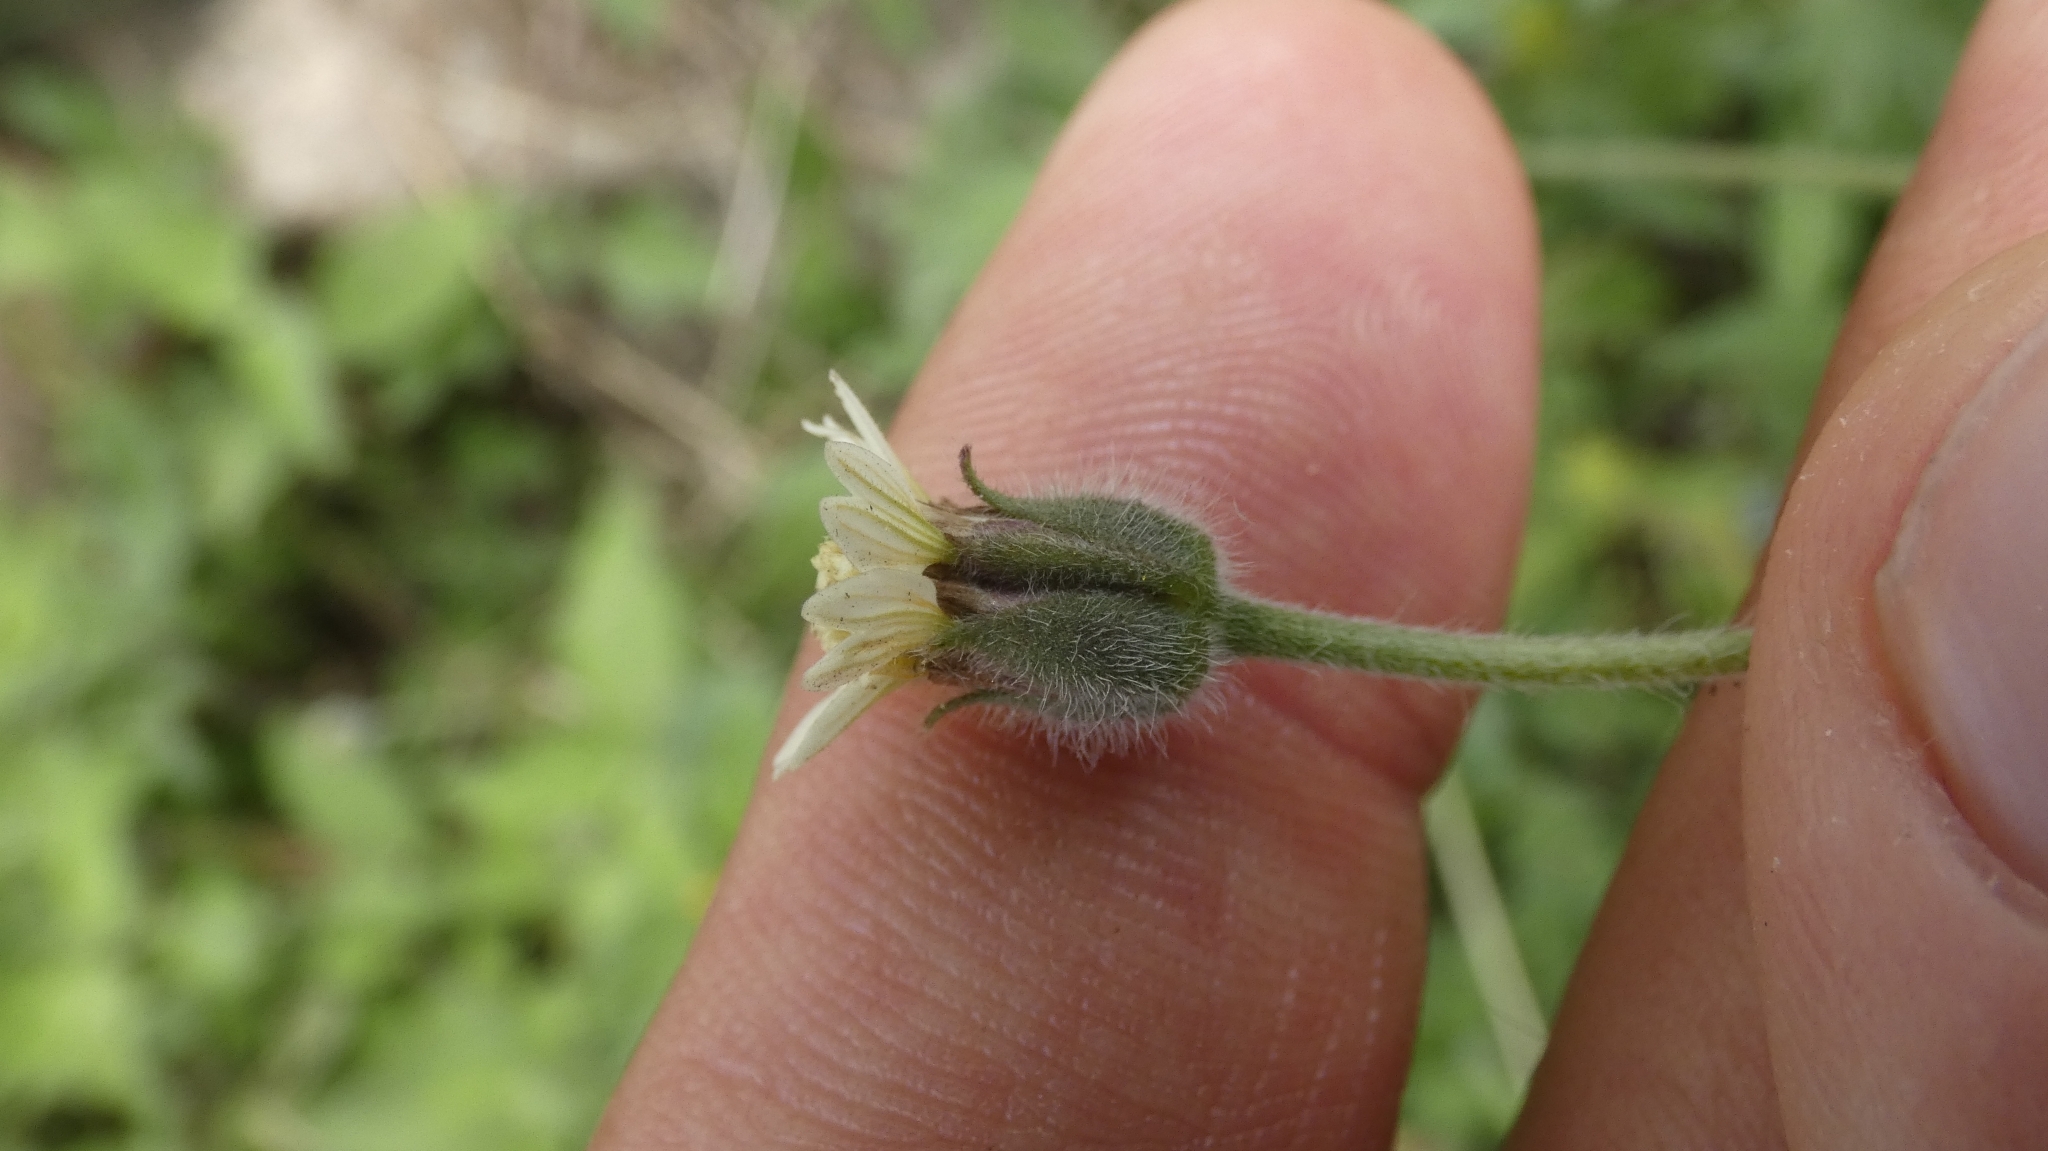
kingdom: Plantae
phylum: Tracheophyta
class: Magnoliopsida
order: Asterales
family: Asteraceae
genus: Tridax
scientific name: Tridax procumbens
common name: Coatbuttons
